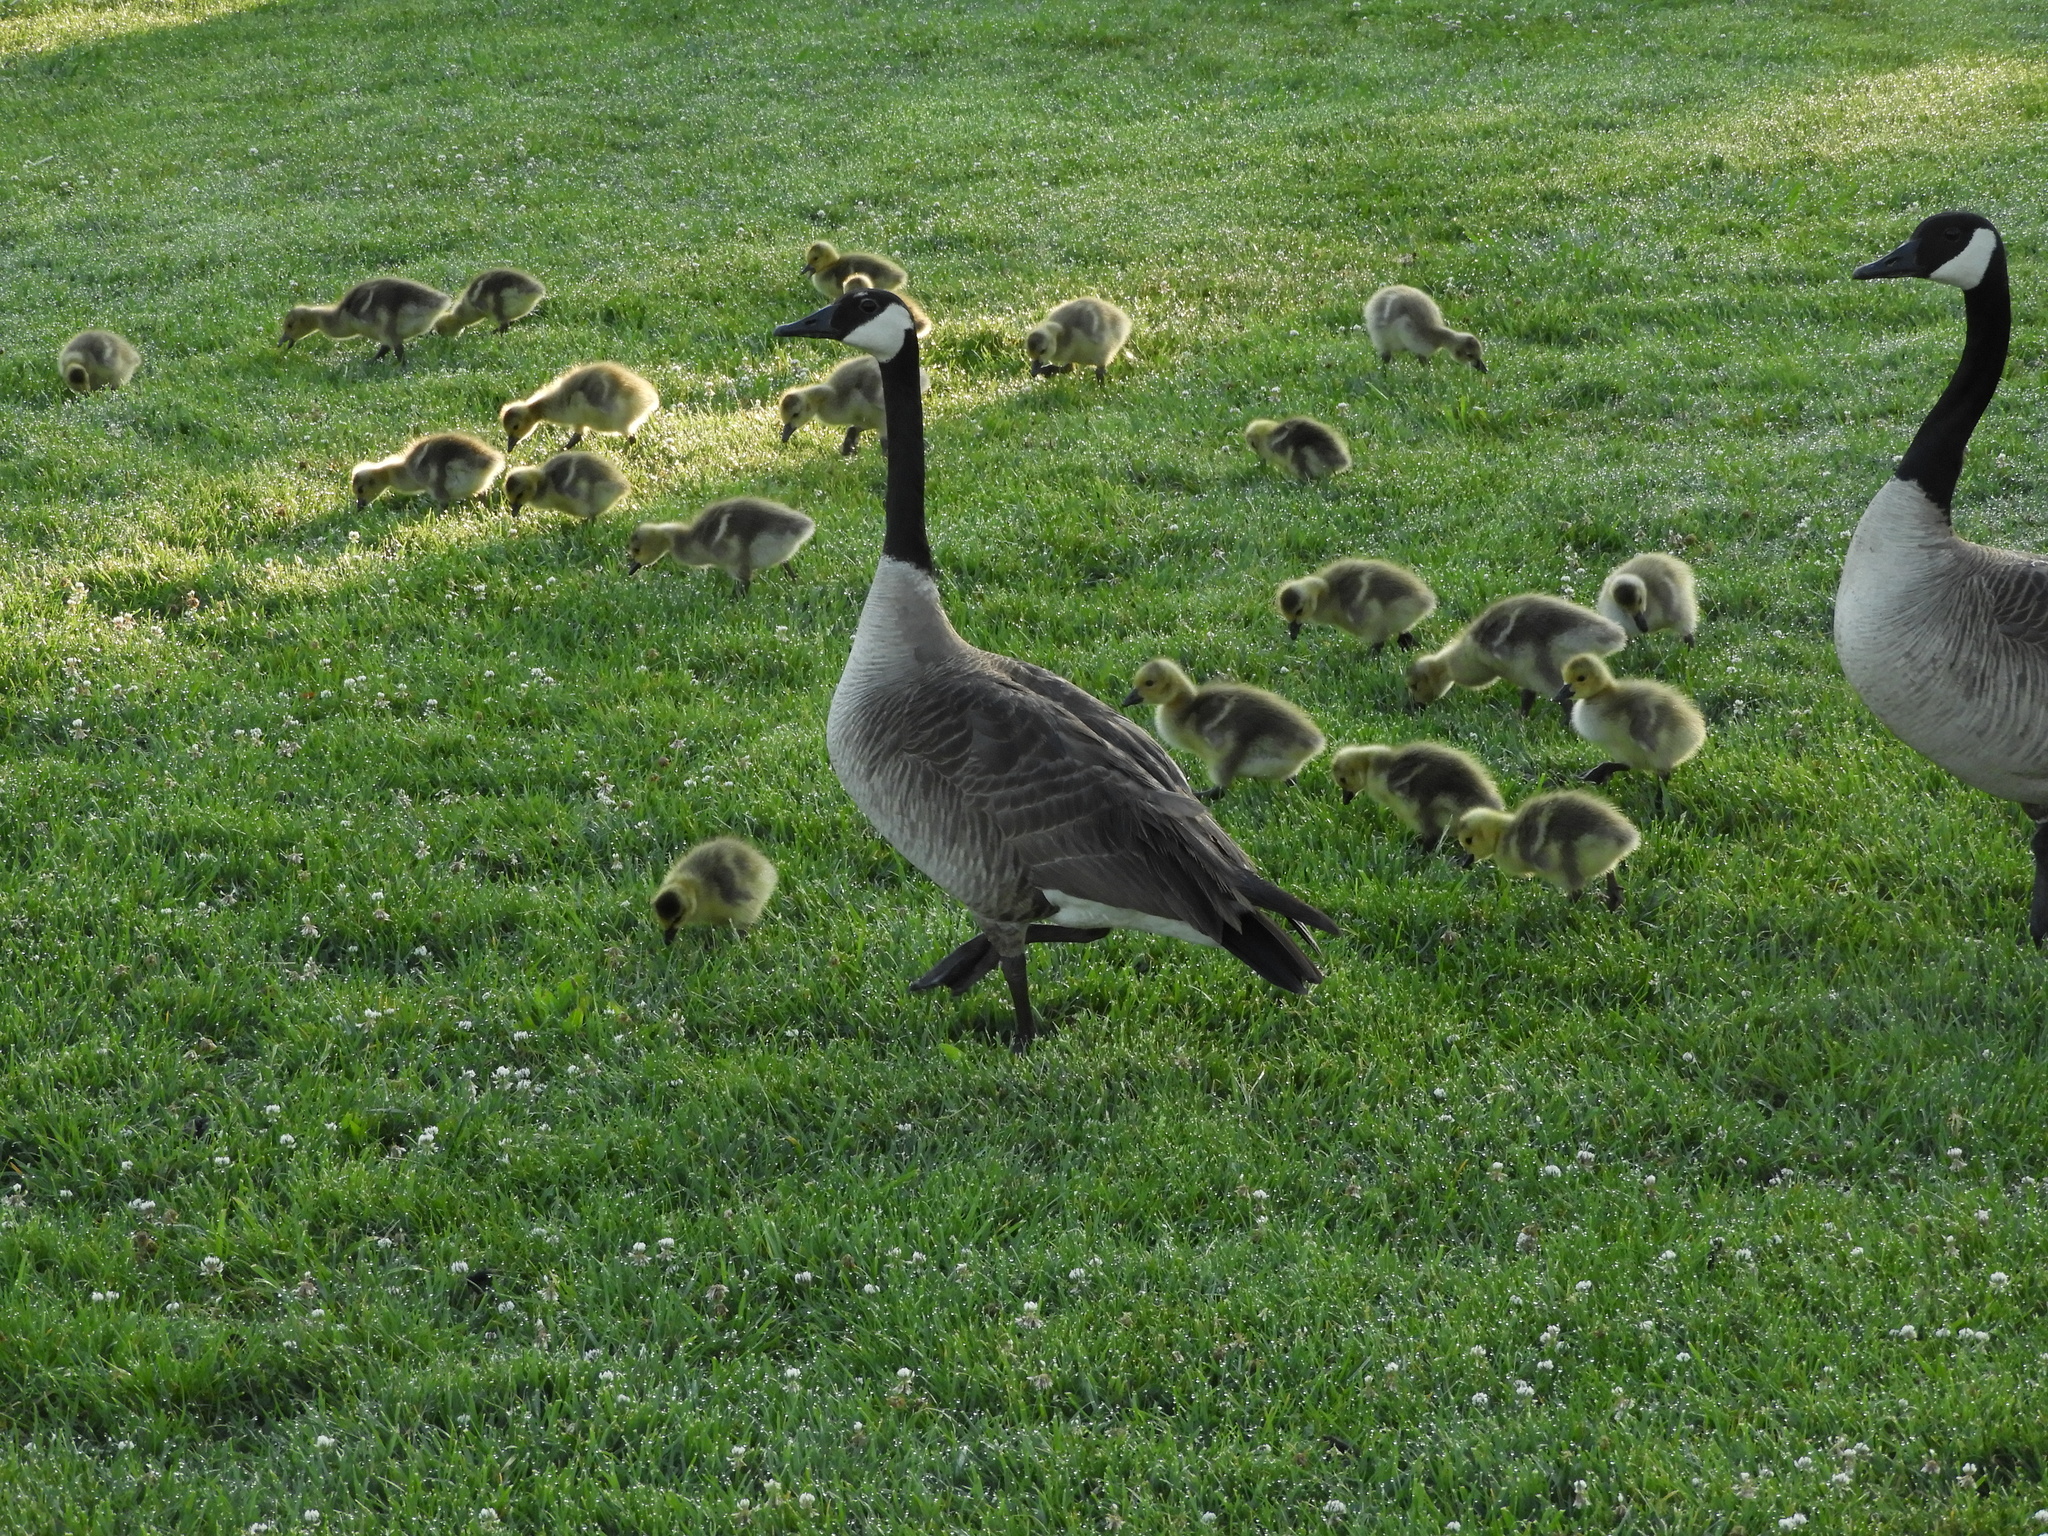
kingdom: Animalia
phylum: Chordata
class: Aves
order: Anseriformes
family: Anatidae
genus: Branta
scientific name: Branta canadensis
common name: Canada goose
